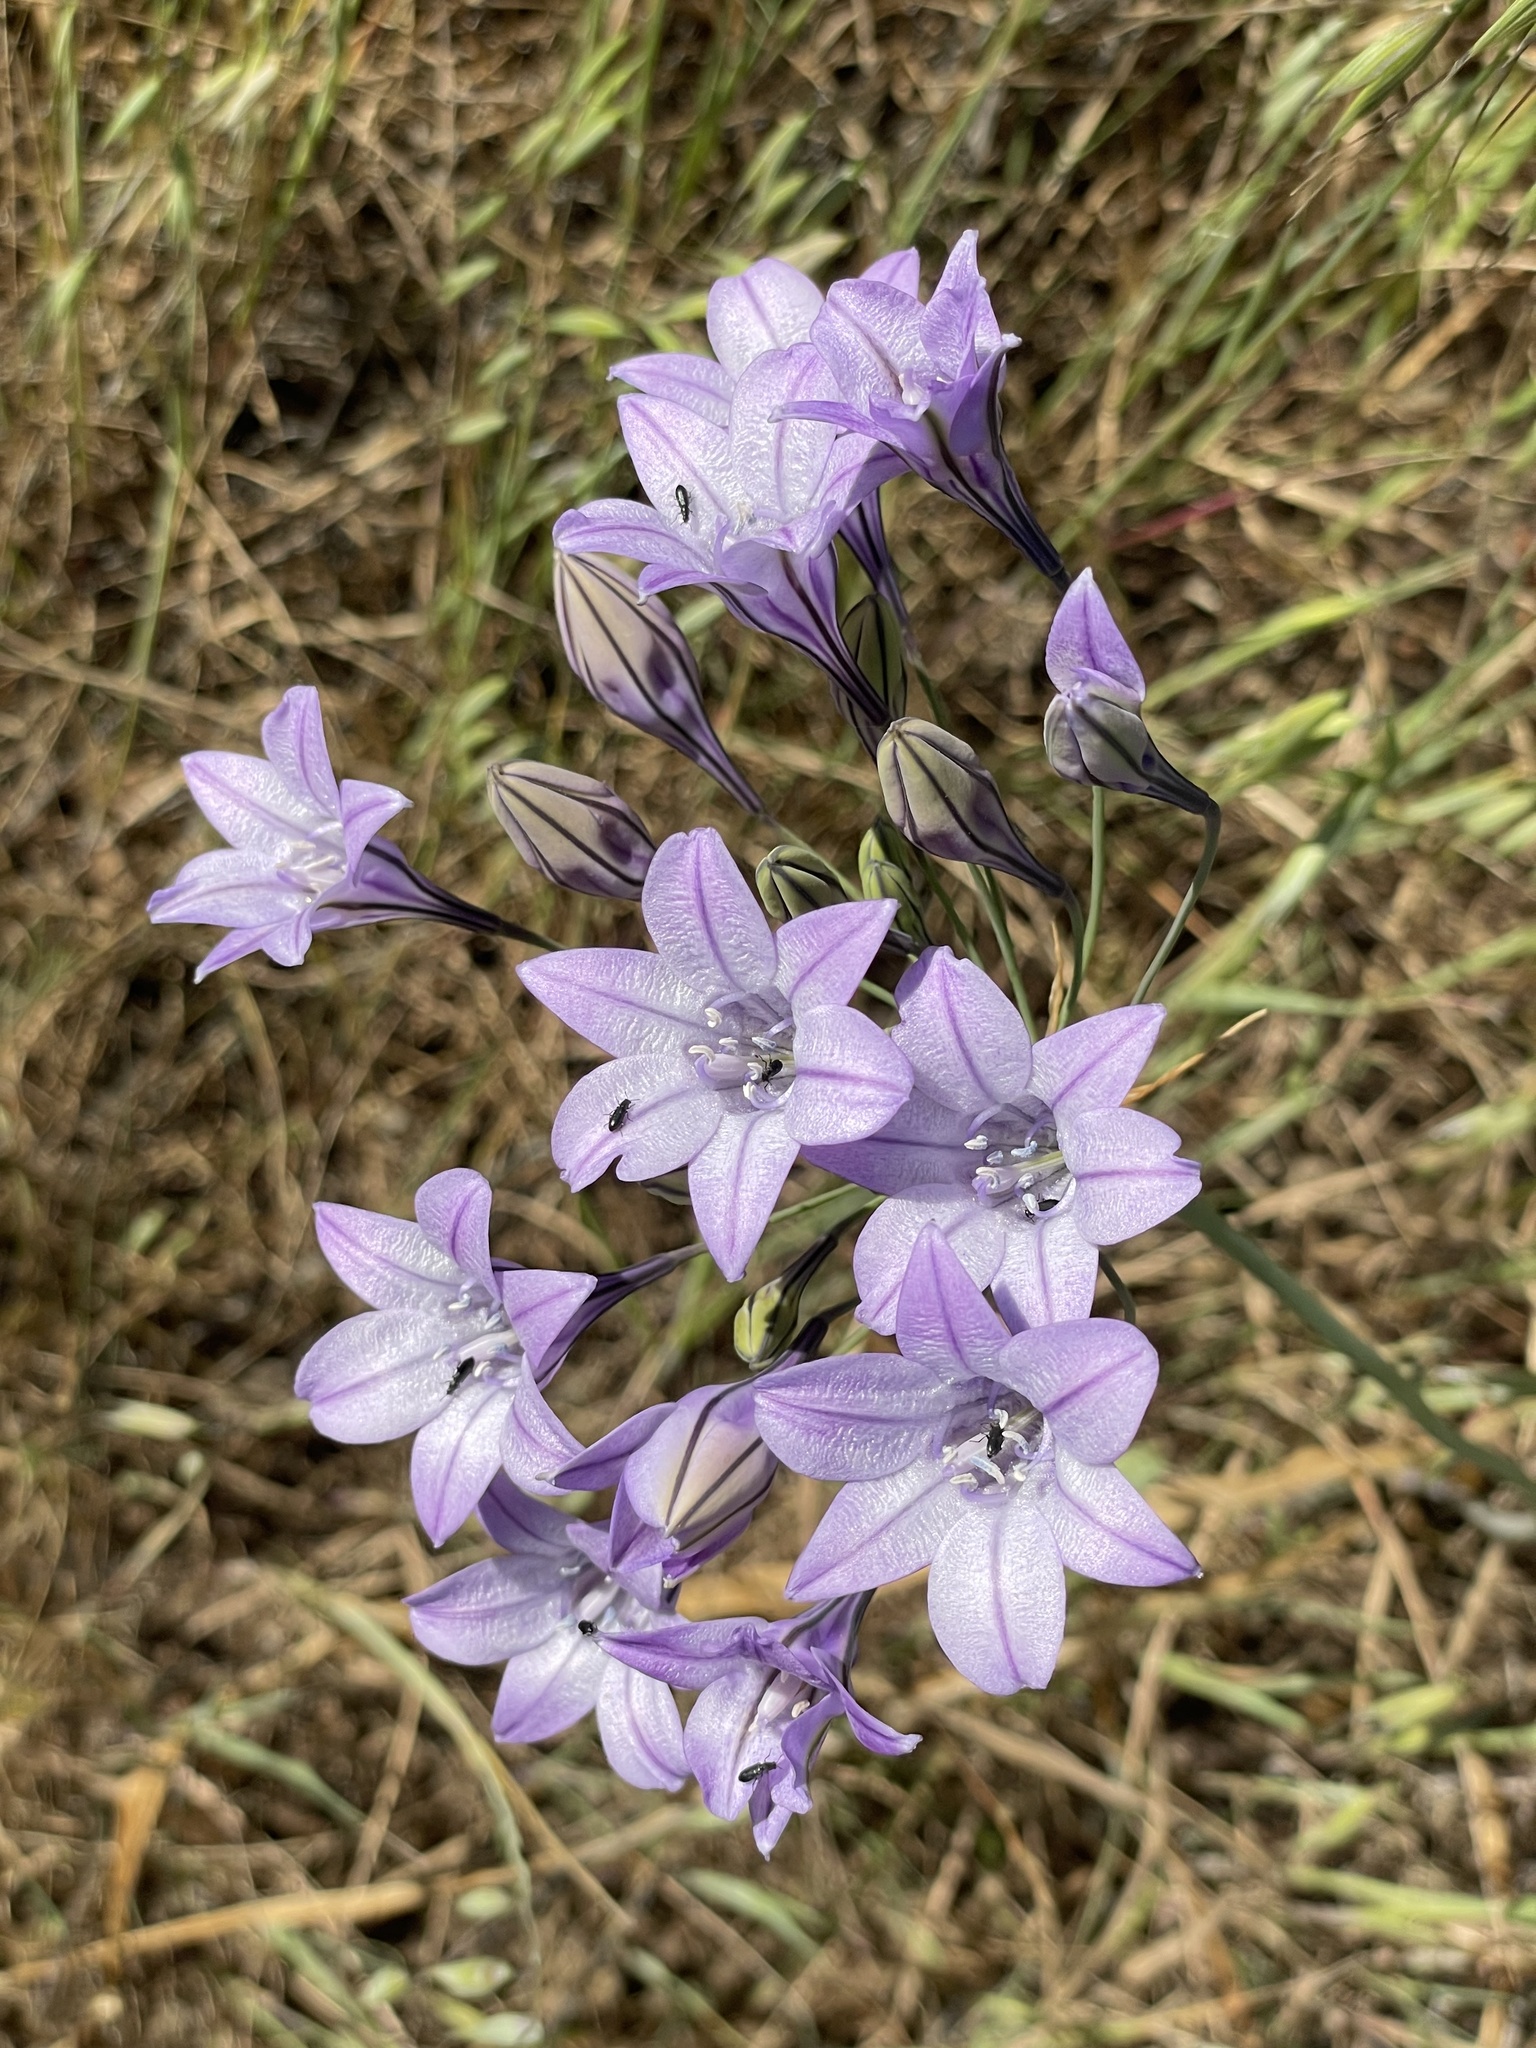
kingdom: Plantae
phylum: Tracheophyta
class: Liliopsida
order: Asparagales
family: Asparagaceae
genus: Triteleia
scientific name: Triteleia laxa
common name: Triplet-lily
